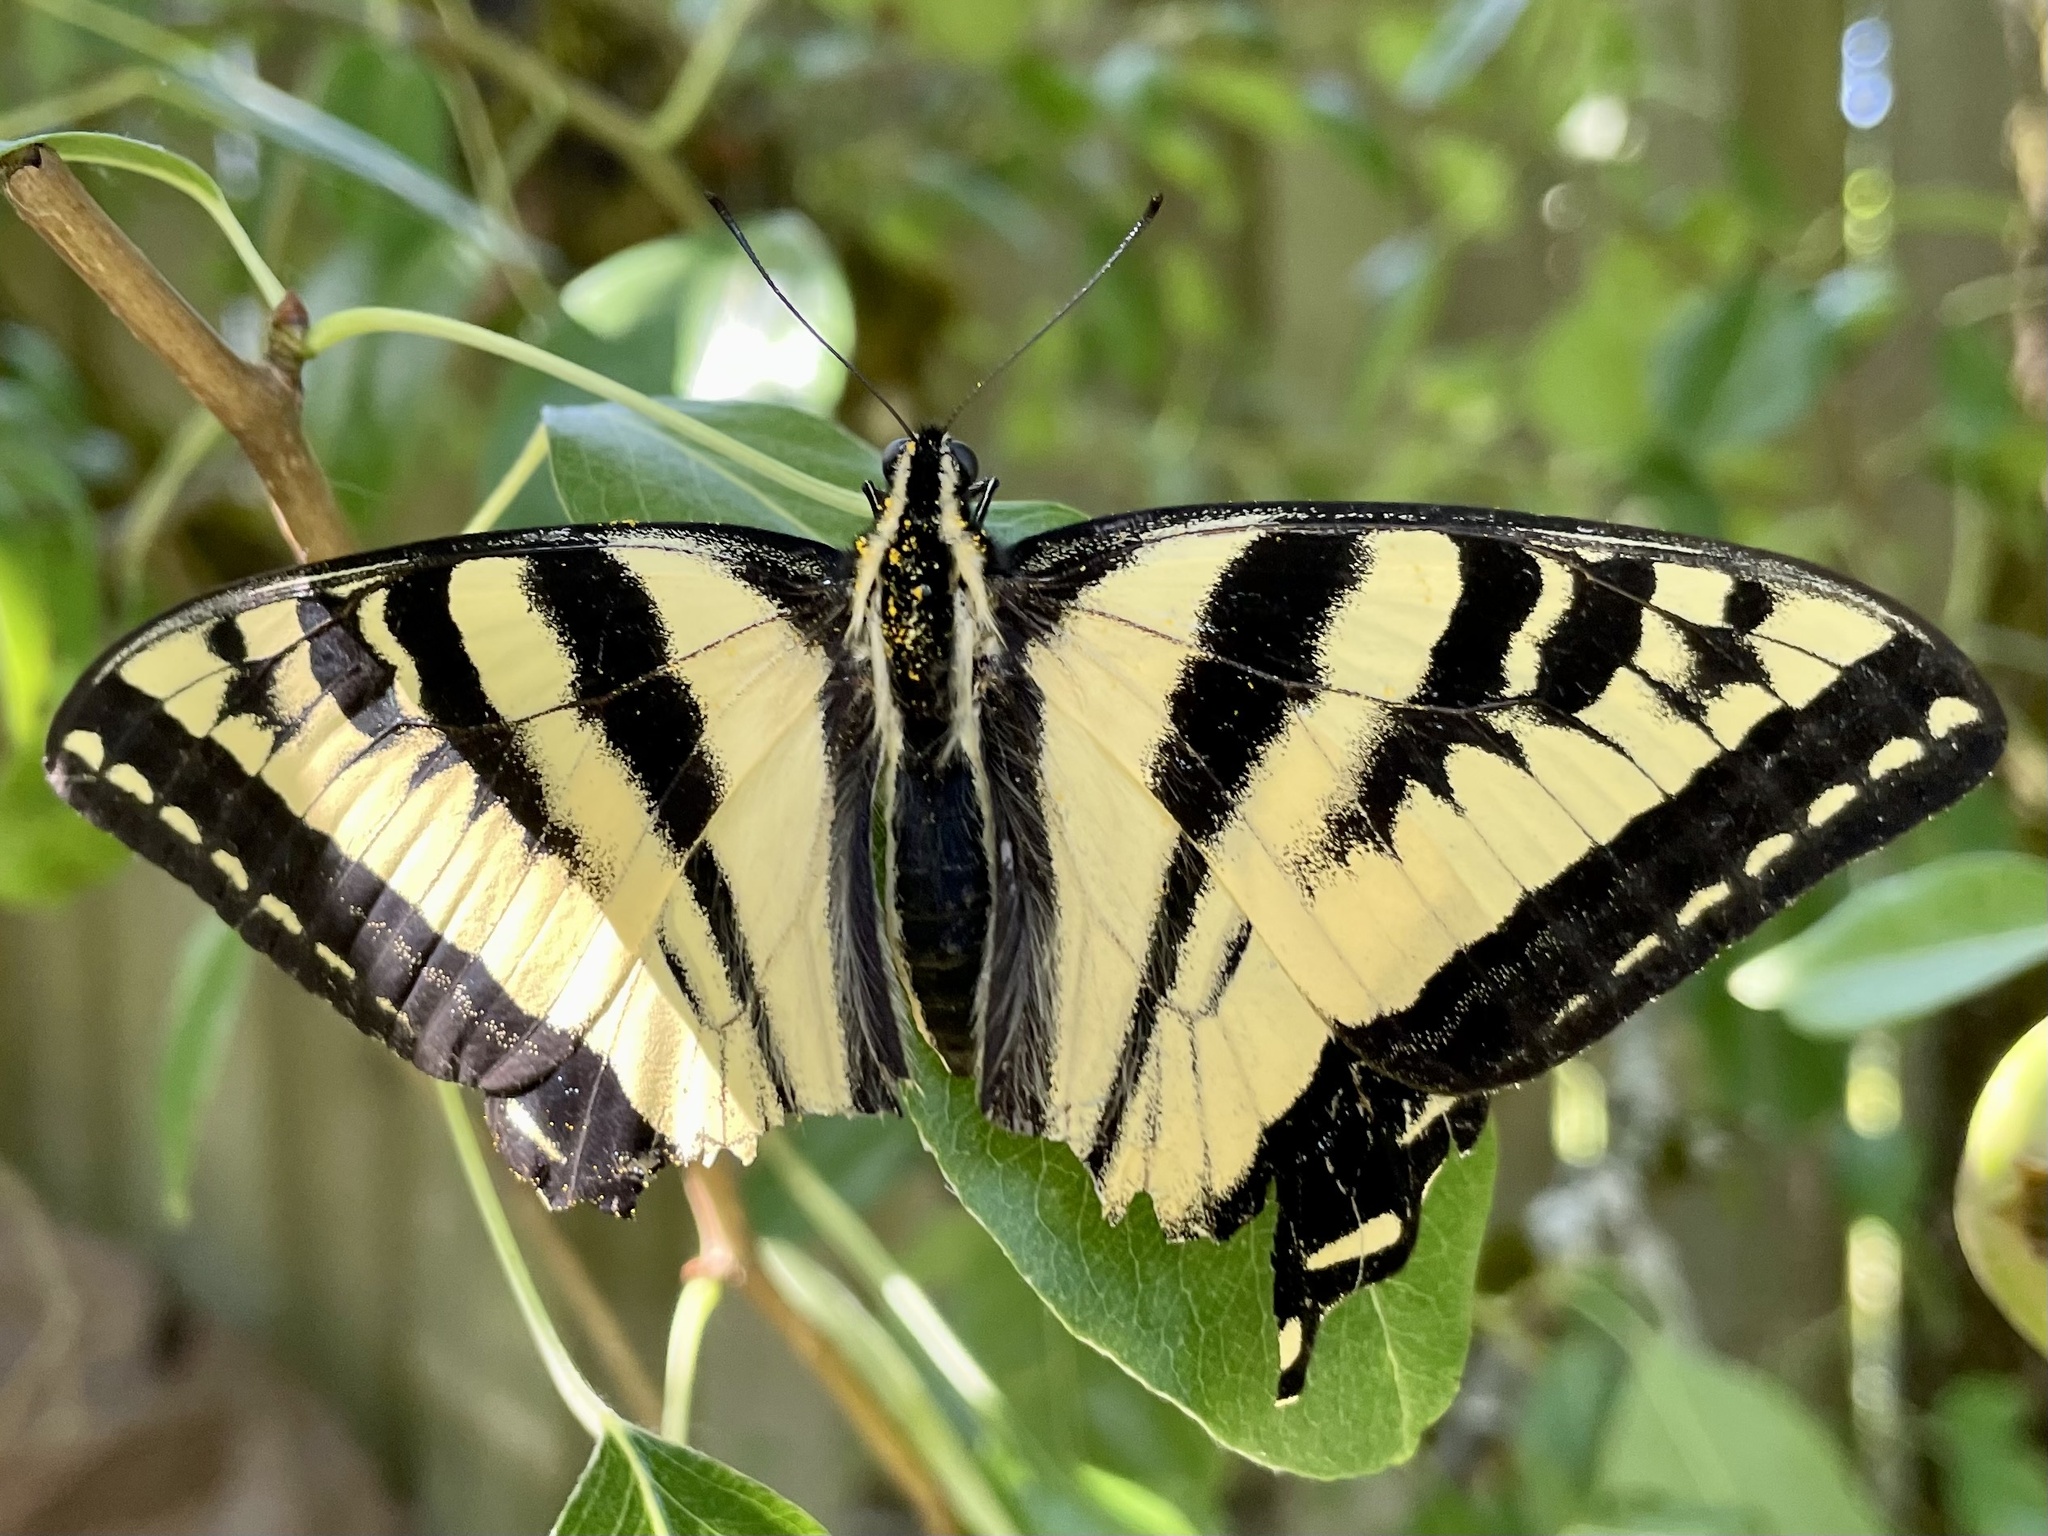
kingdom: Animalia
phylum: Arthropoda
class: Insecta
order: Lepidoptera
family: Papilionidae
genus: Papilio
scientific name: Papilio rutulus
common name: Western tiger swallowtail
